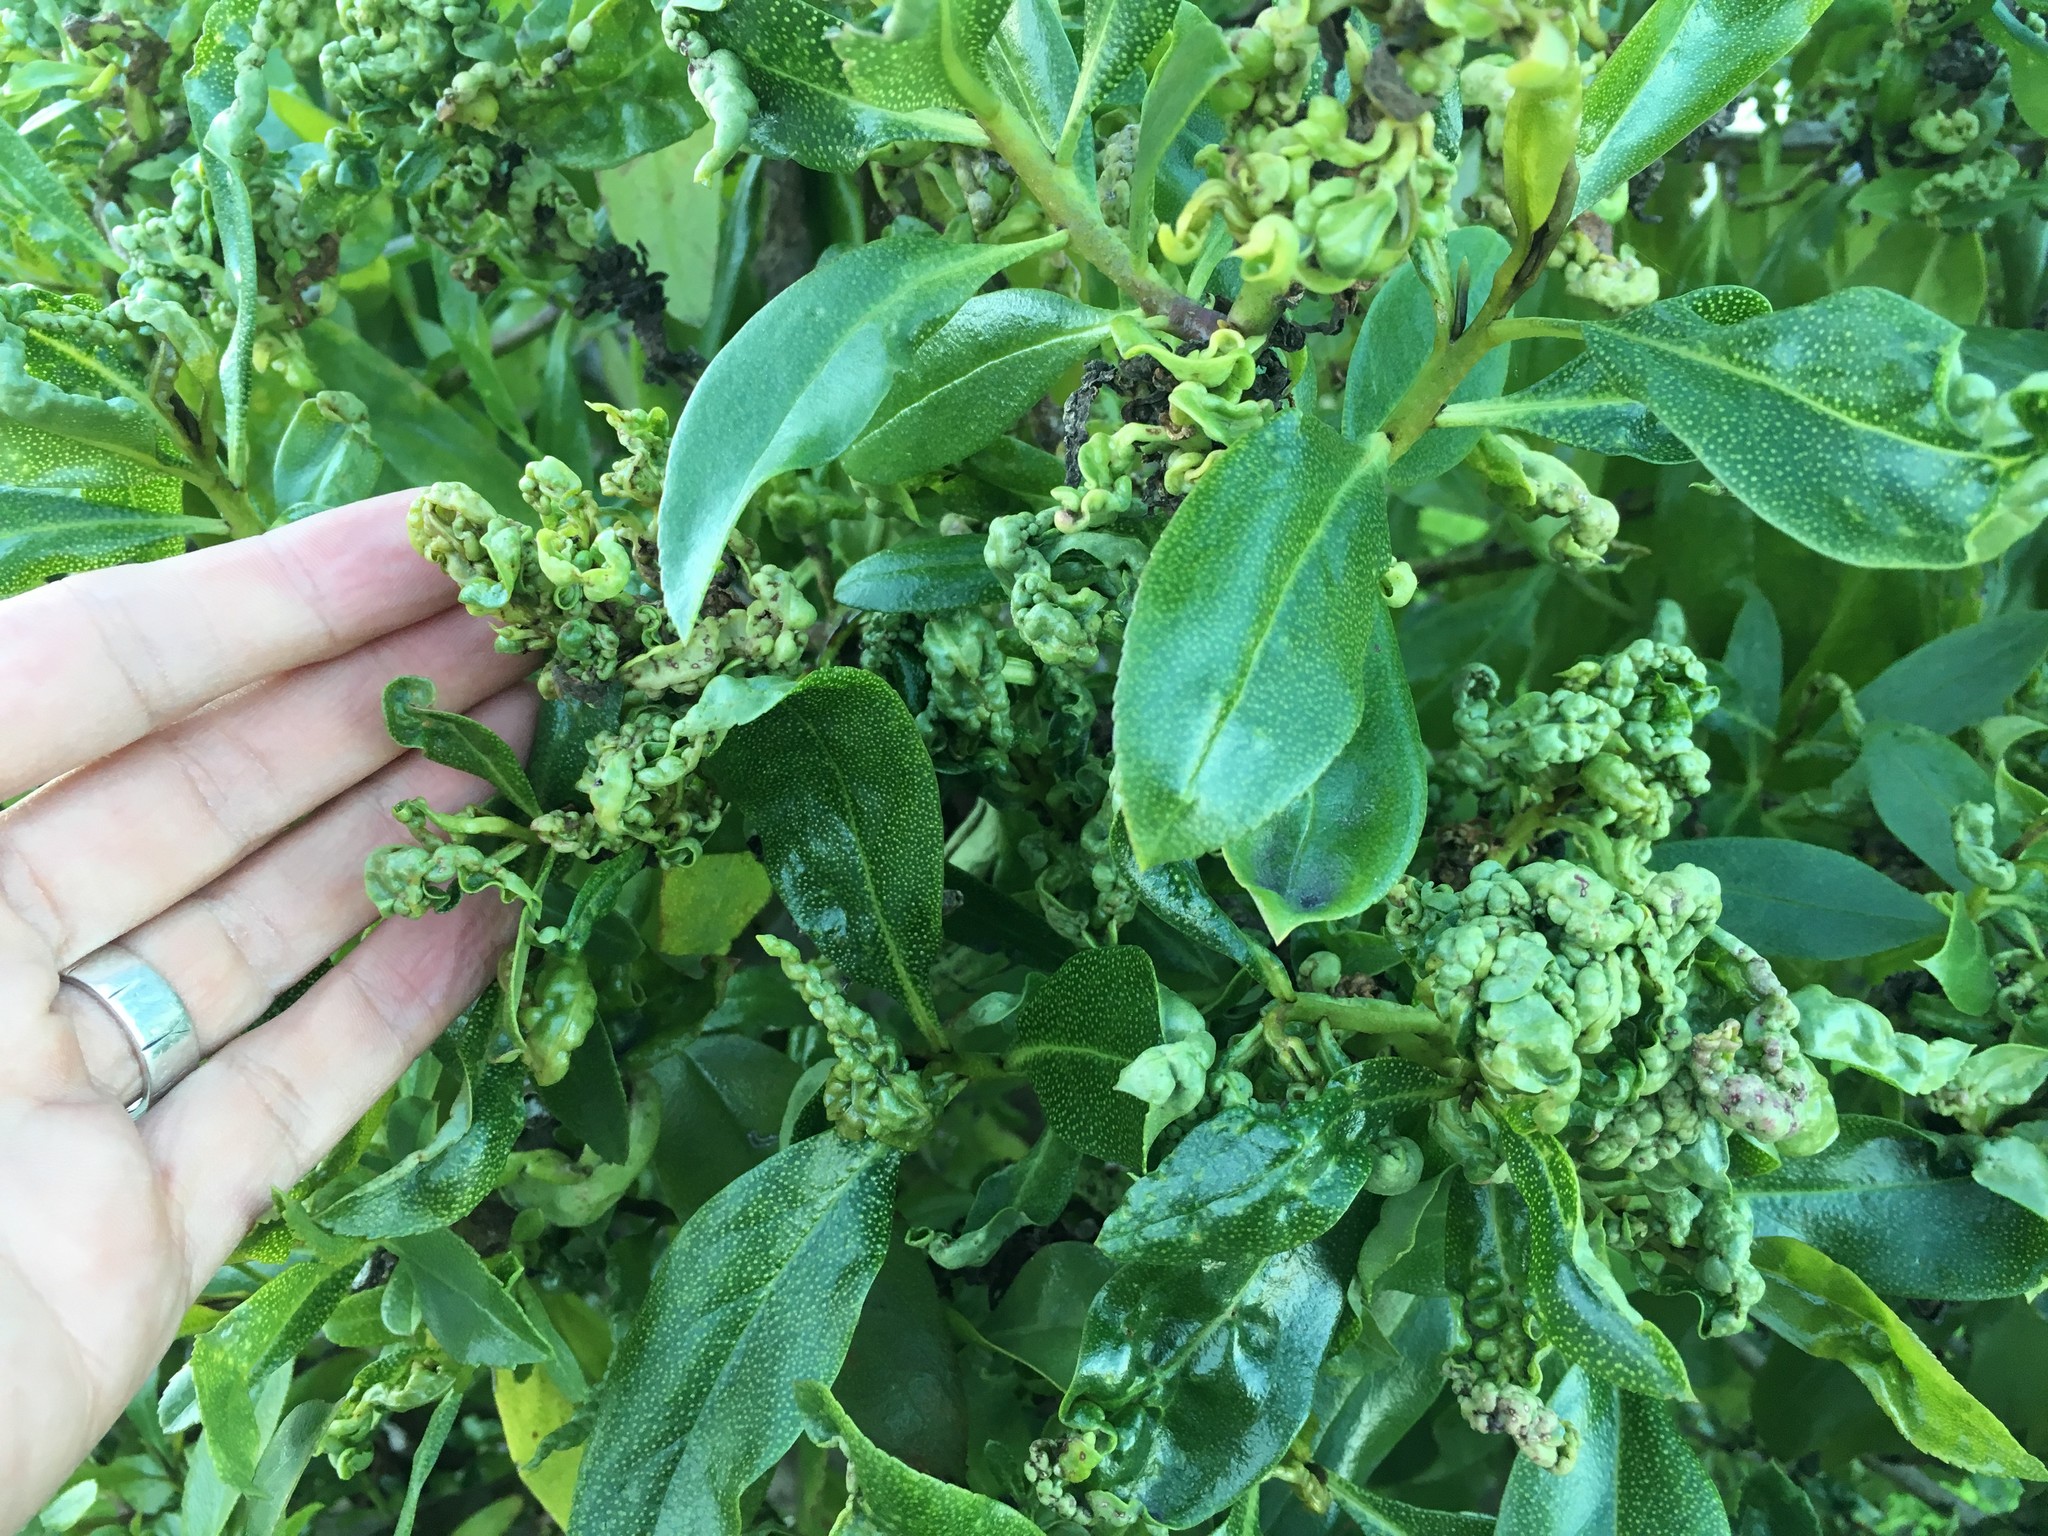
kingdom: Animalia
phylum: Arthropoda
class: Insecta
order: Thysanoptera
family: Phlaeothripidae
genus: Klambothrips
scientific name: Klambothrips myopori
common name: Myoporum thrips
